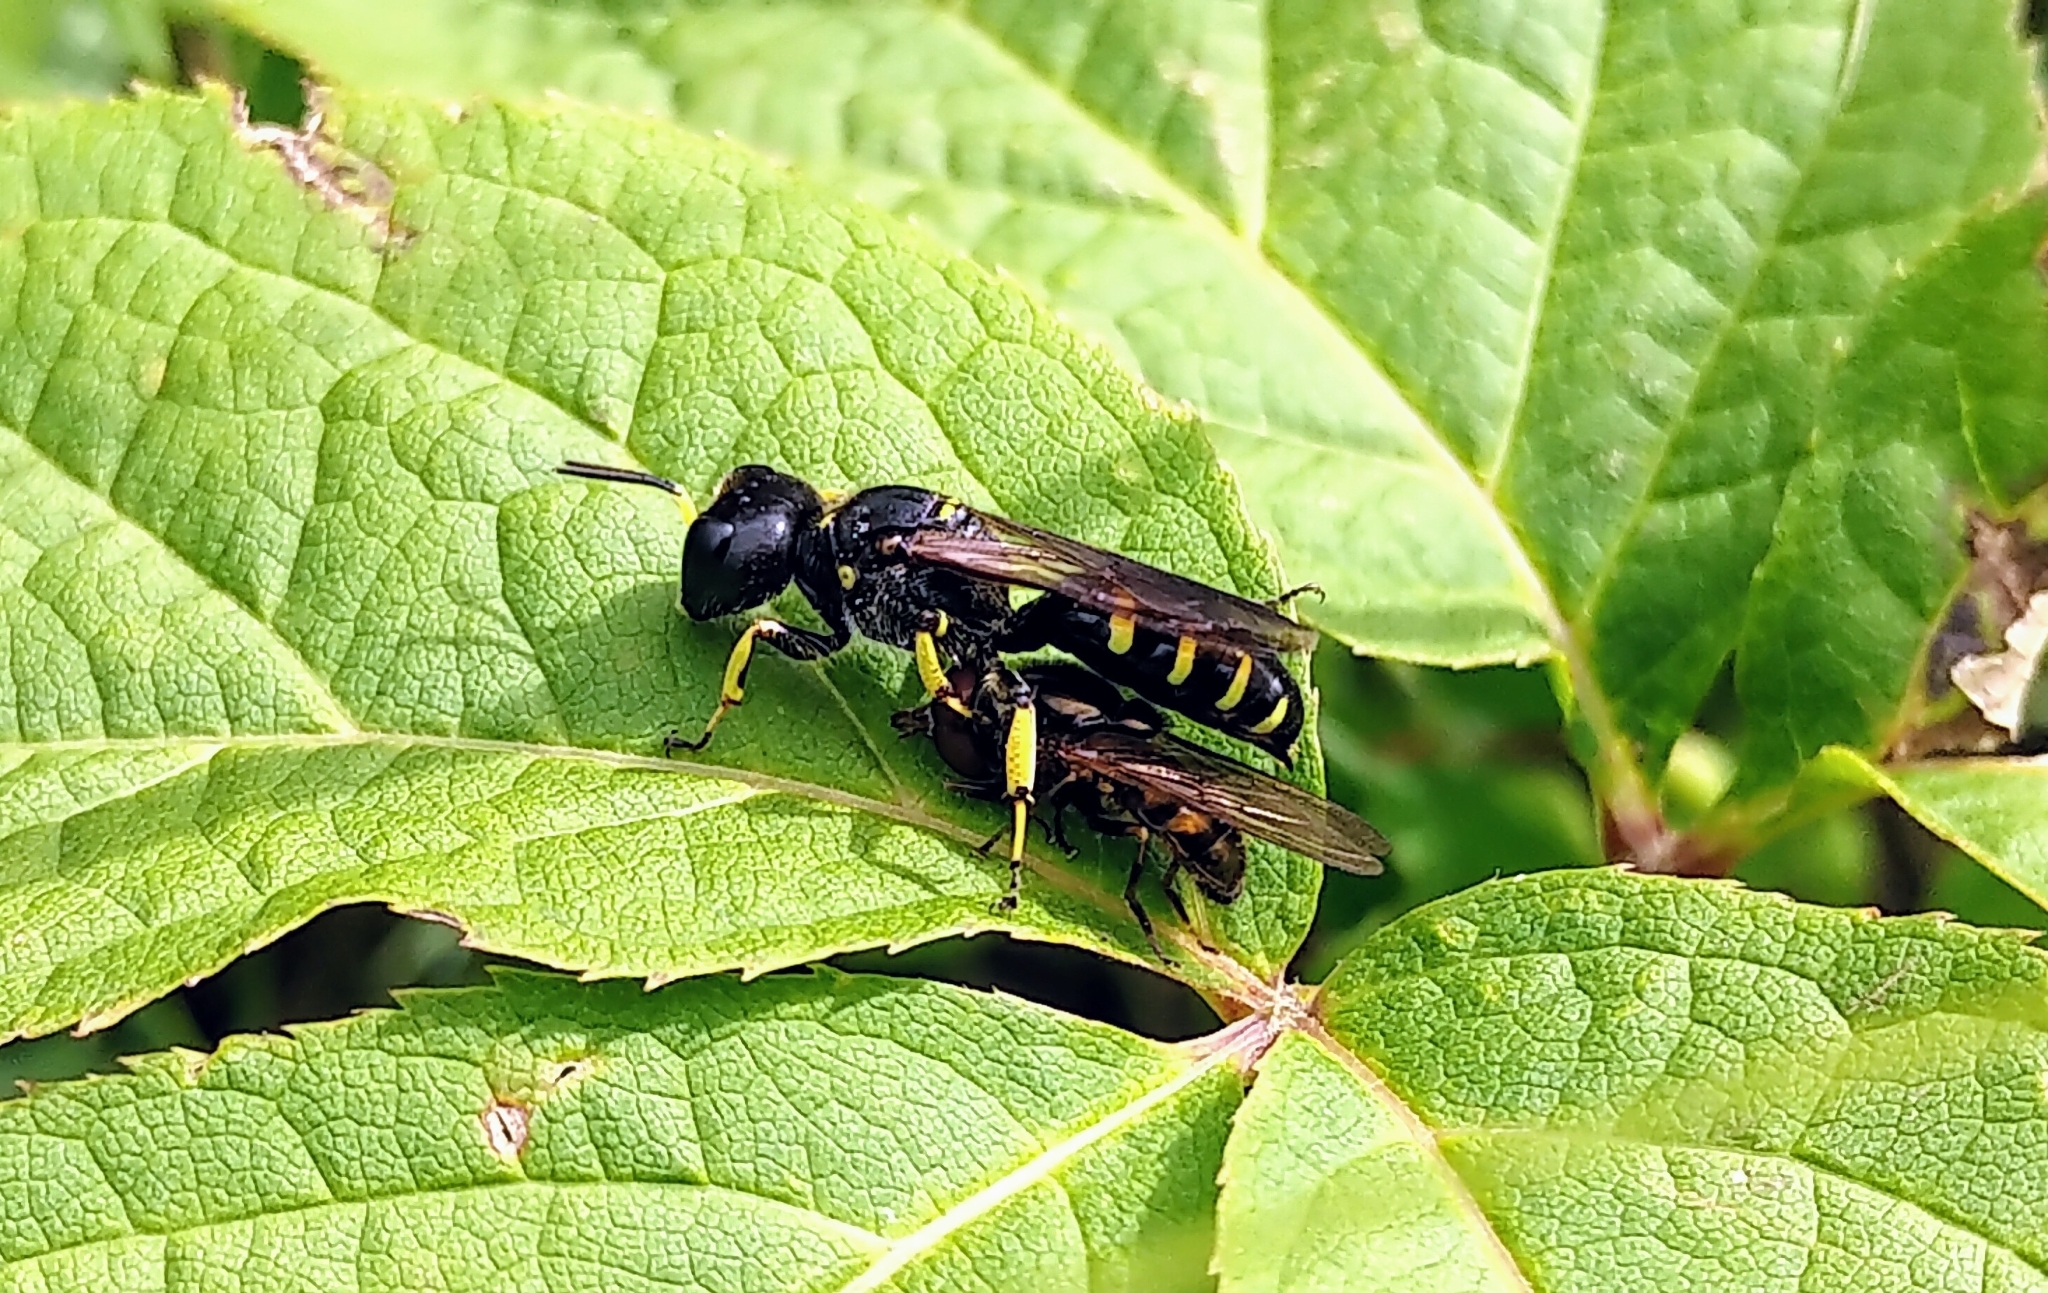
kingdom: Animalia
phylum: Arthropoda
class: Insecta
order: Hymenoptera
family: Crabronidae
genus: Ectemnius
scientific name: Ectemnius maculosus
